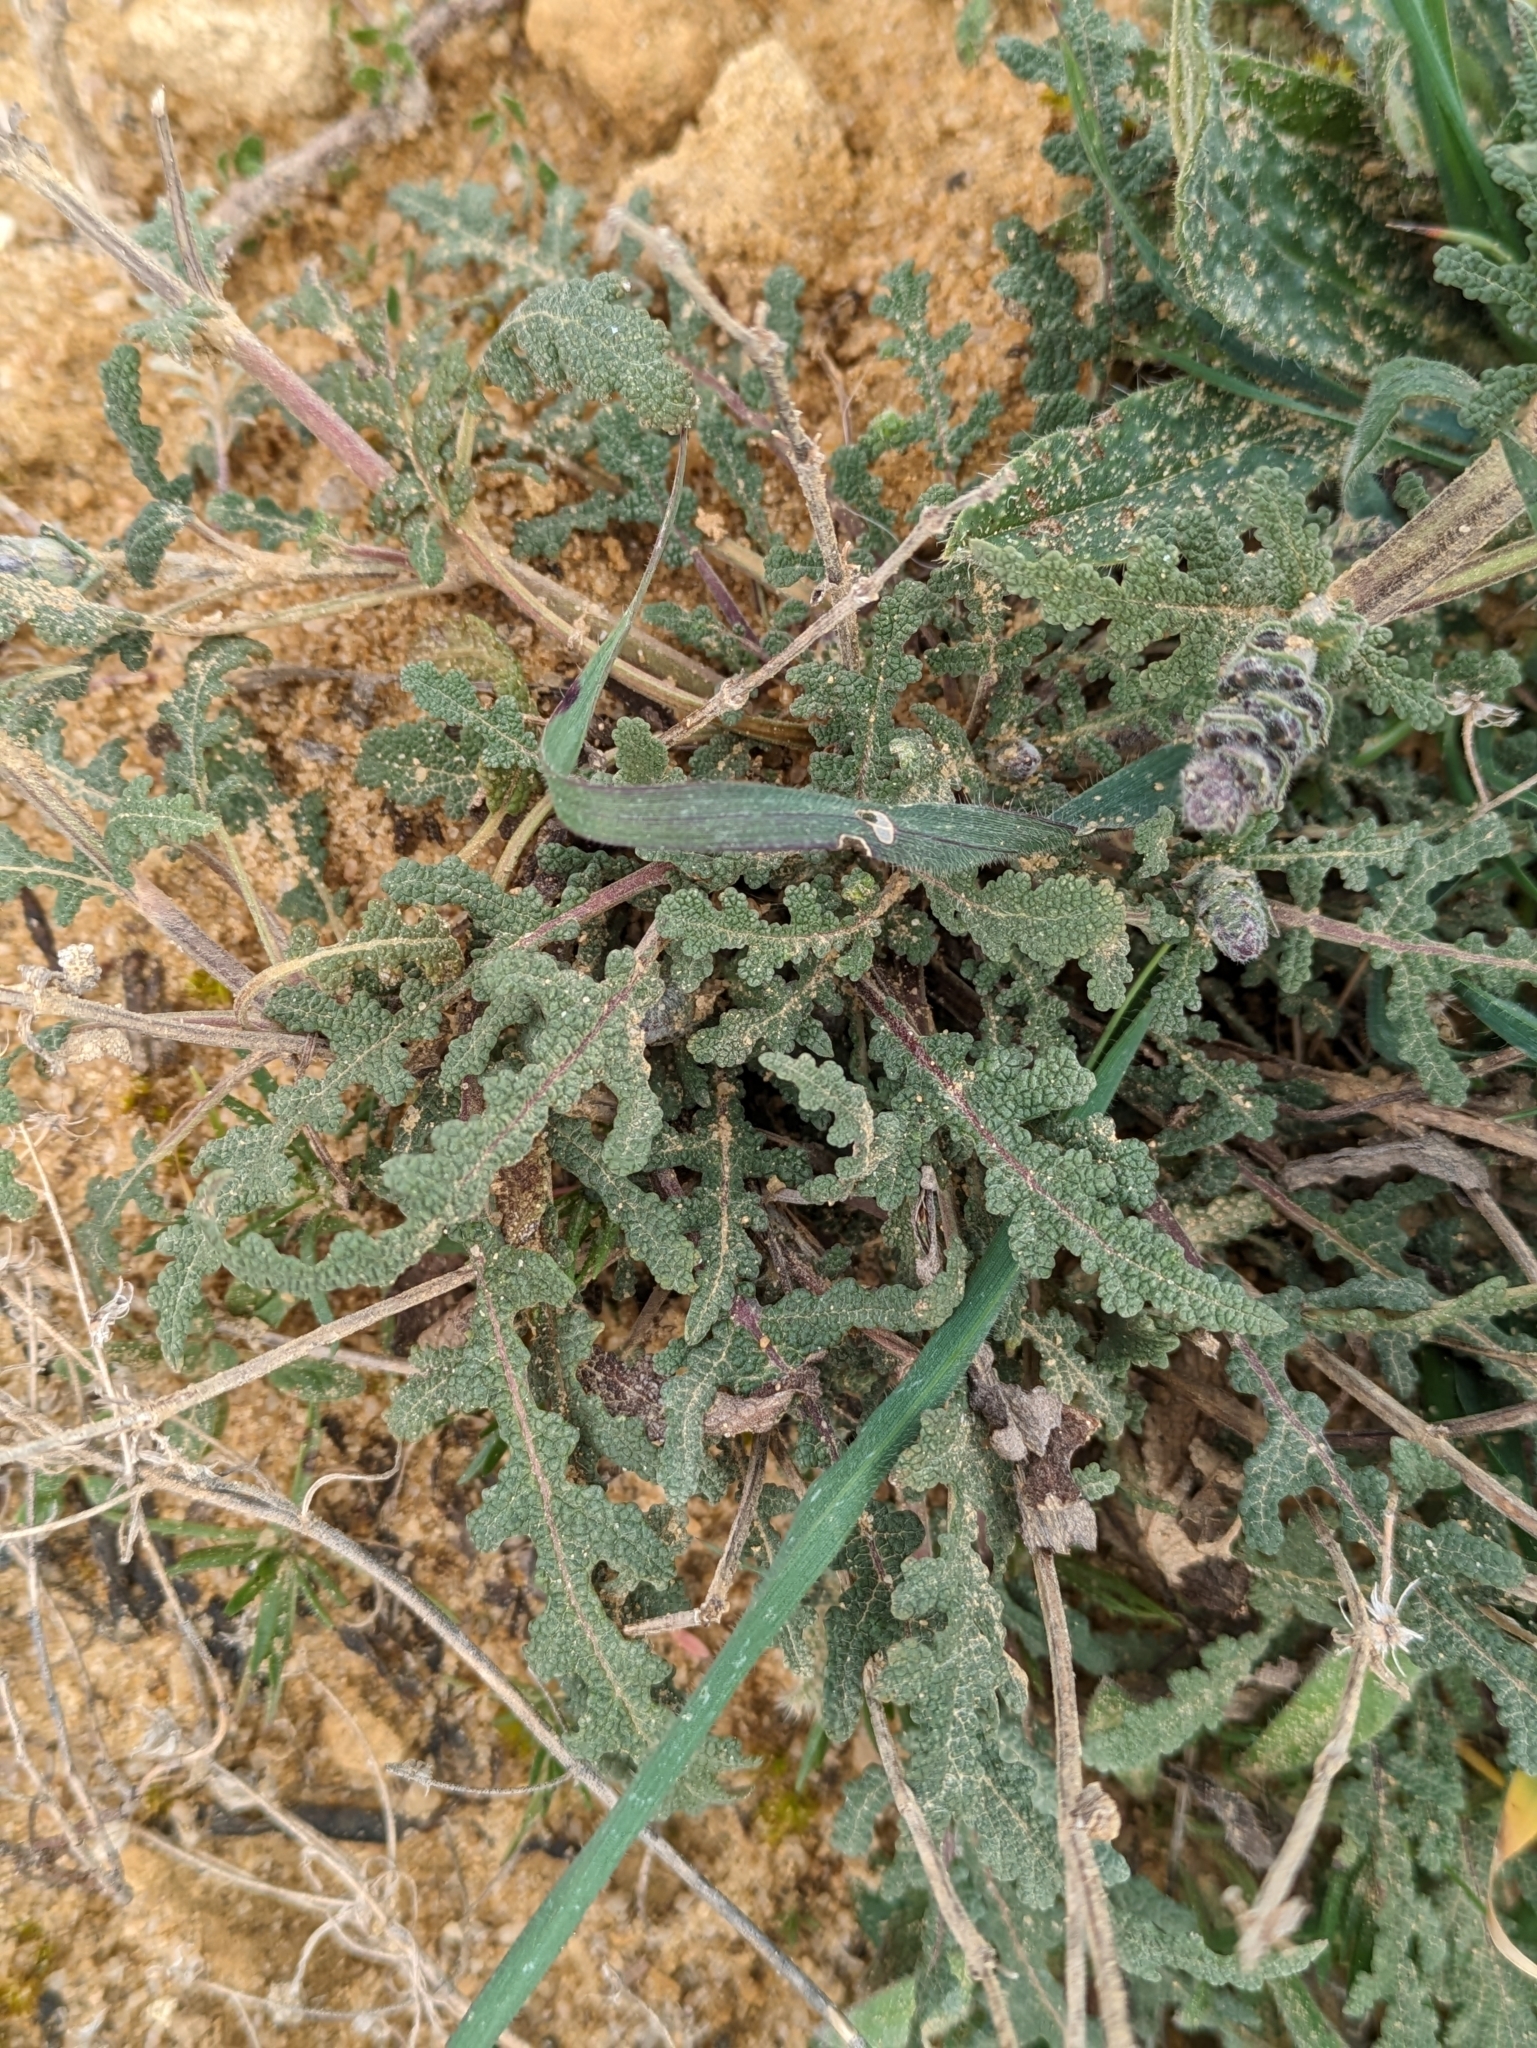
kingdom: Plantae
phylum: Tracheophyta
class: Magnoliopsida
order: Lamiales
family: Lamiaceae
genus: Salvia
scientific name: Salvia verbenaca
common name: Wild clary
